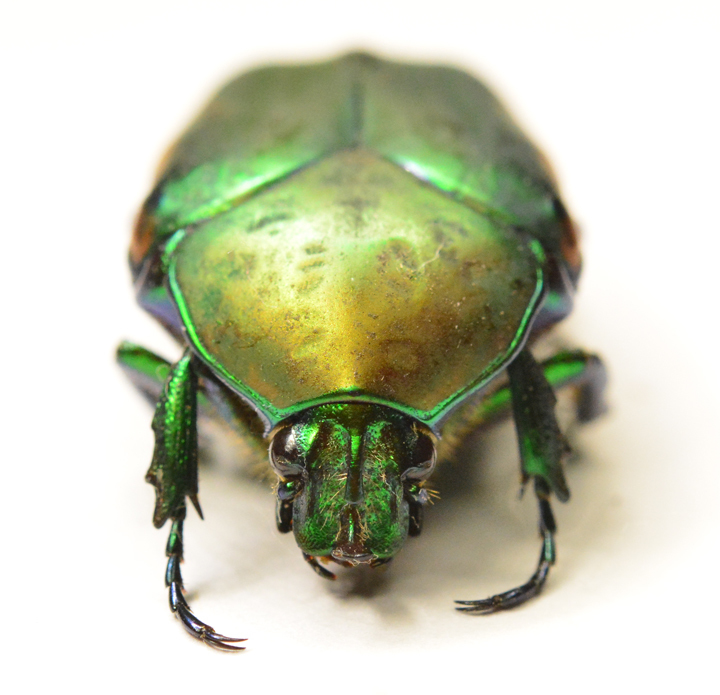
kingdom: Animalia
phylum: Arthropoda
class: Insecta
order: Coleoptera
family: Scarabaeidae
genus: Cotinis
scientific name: Cotinis mutabilis
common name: Figeater beetle
